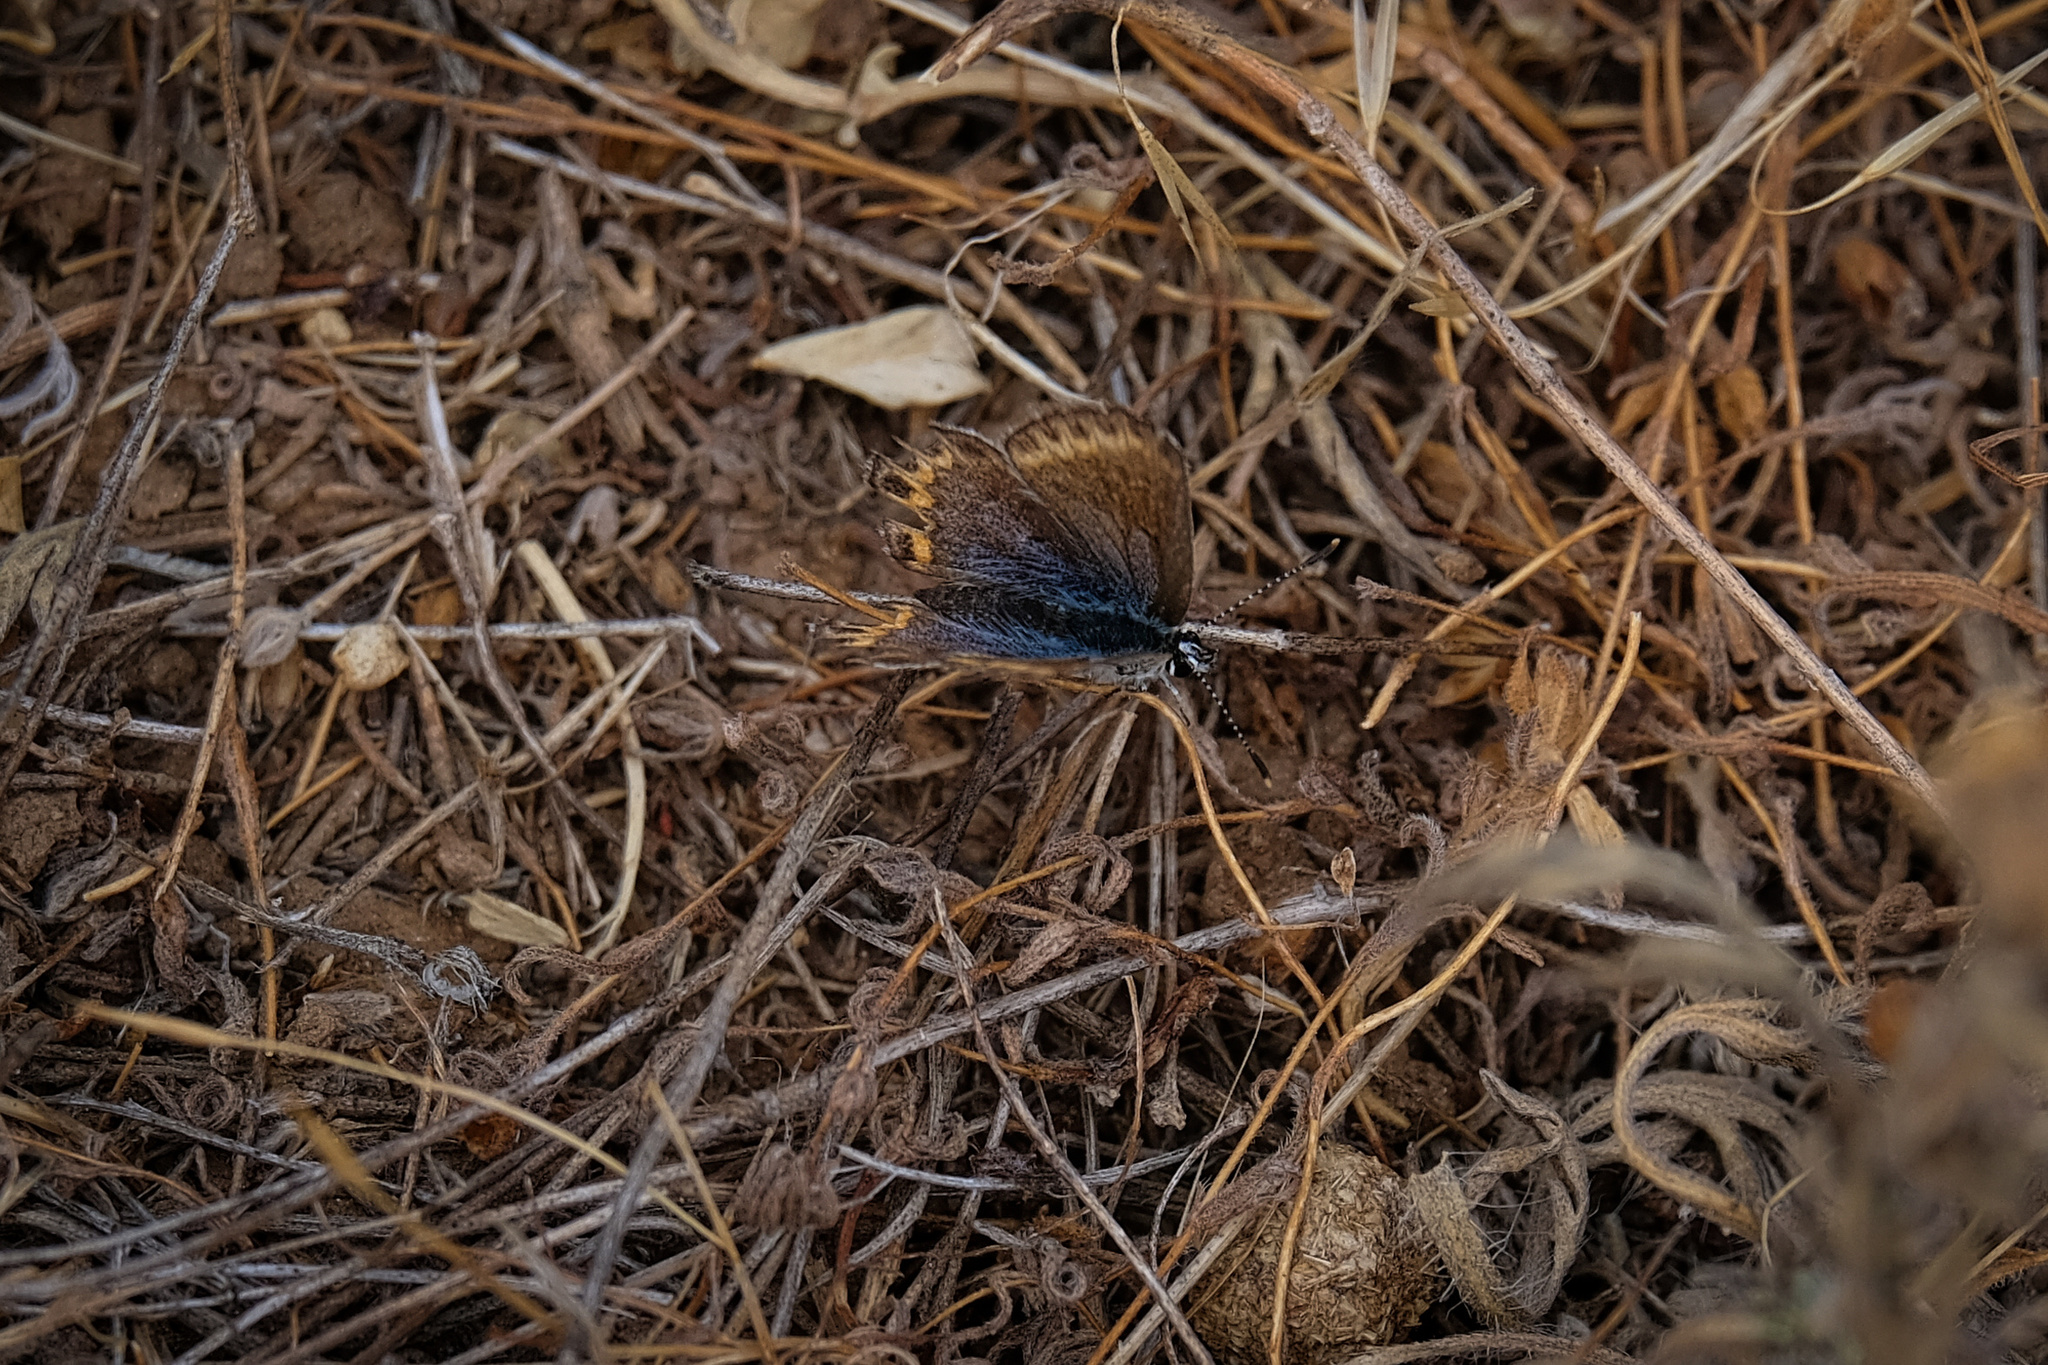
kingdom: Animalia
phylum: Arthropoda
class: Insecta
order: Lepidoptera
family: Lycaenidae
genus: Lycaeides
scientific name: Lycaeides melissa
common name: Melissa blue
